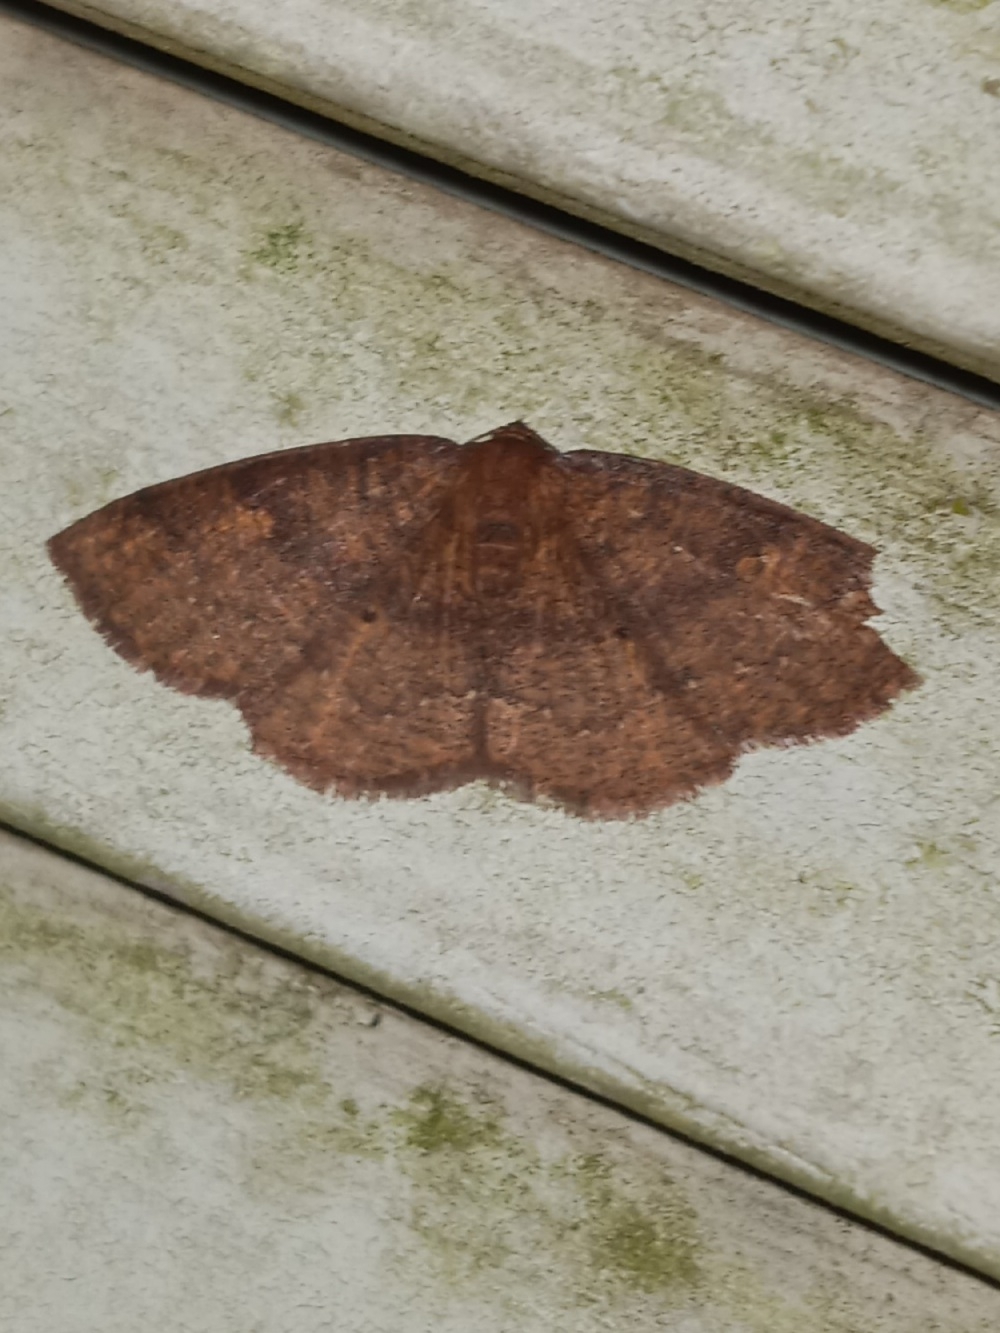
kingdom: Animalia
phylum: Arthropoda
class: Insecta
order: Lepidoptera
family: Geometridae
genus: Ilexia
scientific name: Ilexia intractata
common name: Black-dotted ruddy moth
